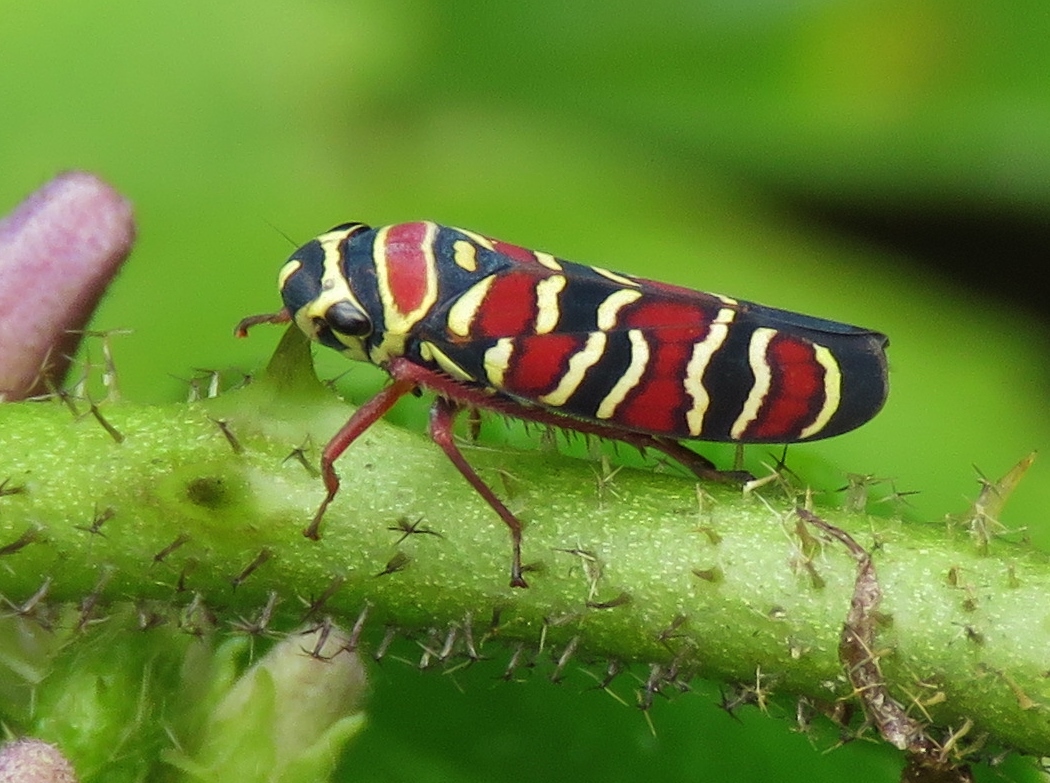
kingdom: Animalia
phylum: Arthropoda
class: Insecta
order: Hemiptera
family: Cicadellidae
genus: Agrosoma
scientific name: Agrosoma placetis
